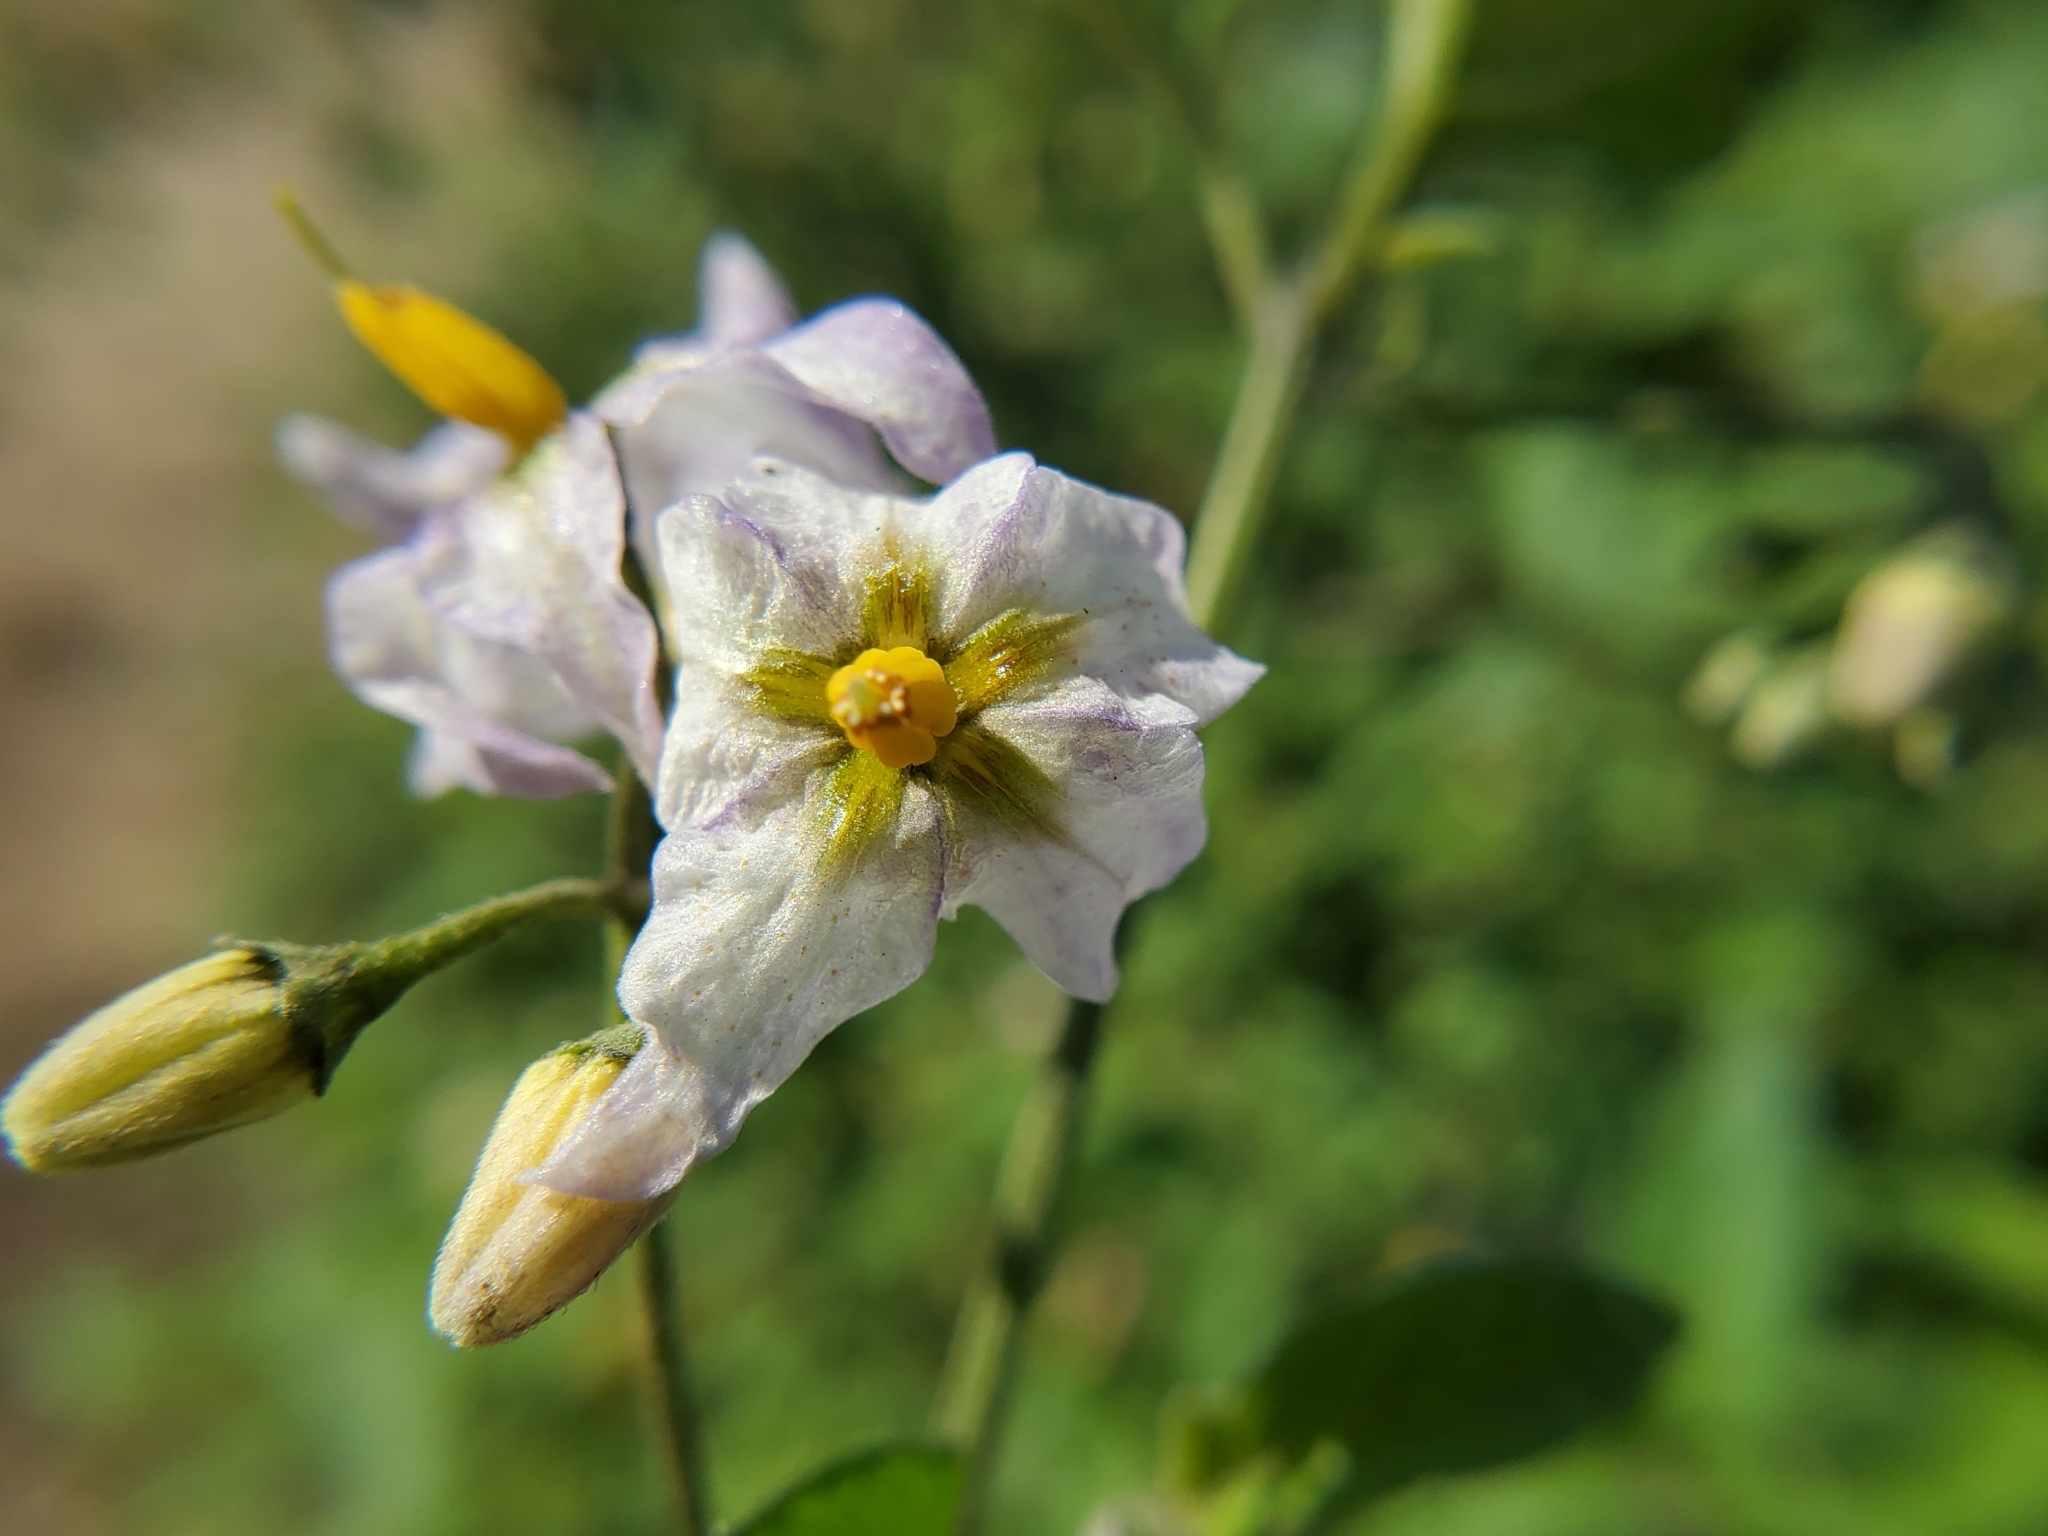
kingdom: Plantae
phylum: Tracheophyta
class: Magnoliopsida
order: Solanales
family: Solanaceae
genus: Solanum
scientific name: Solanum douglasii
